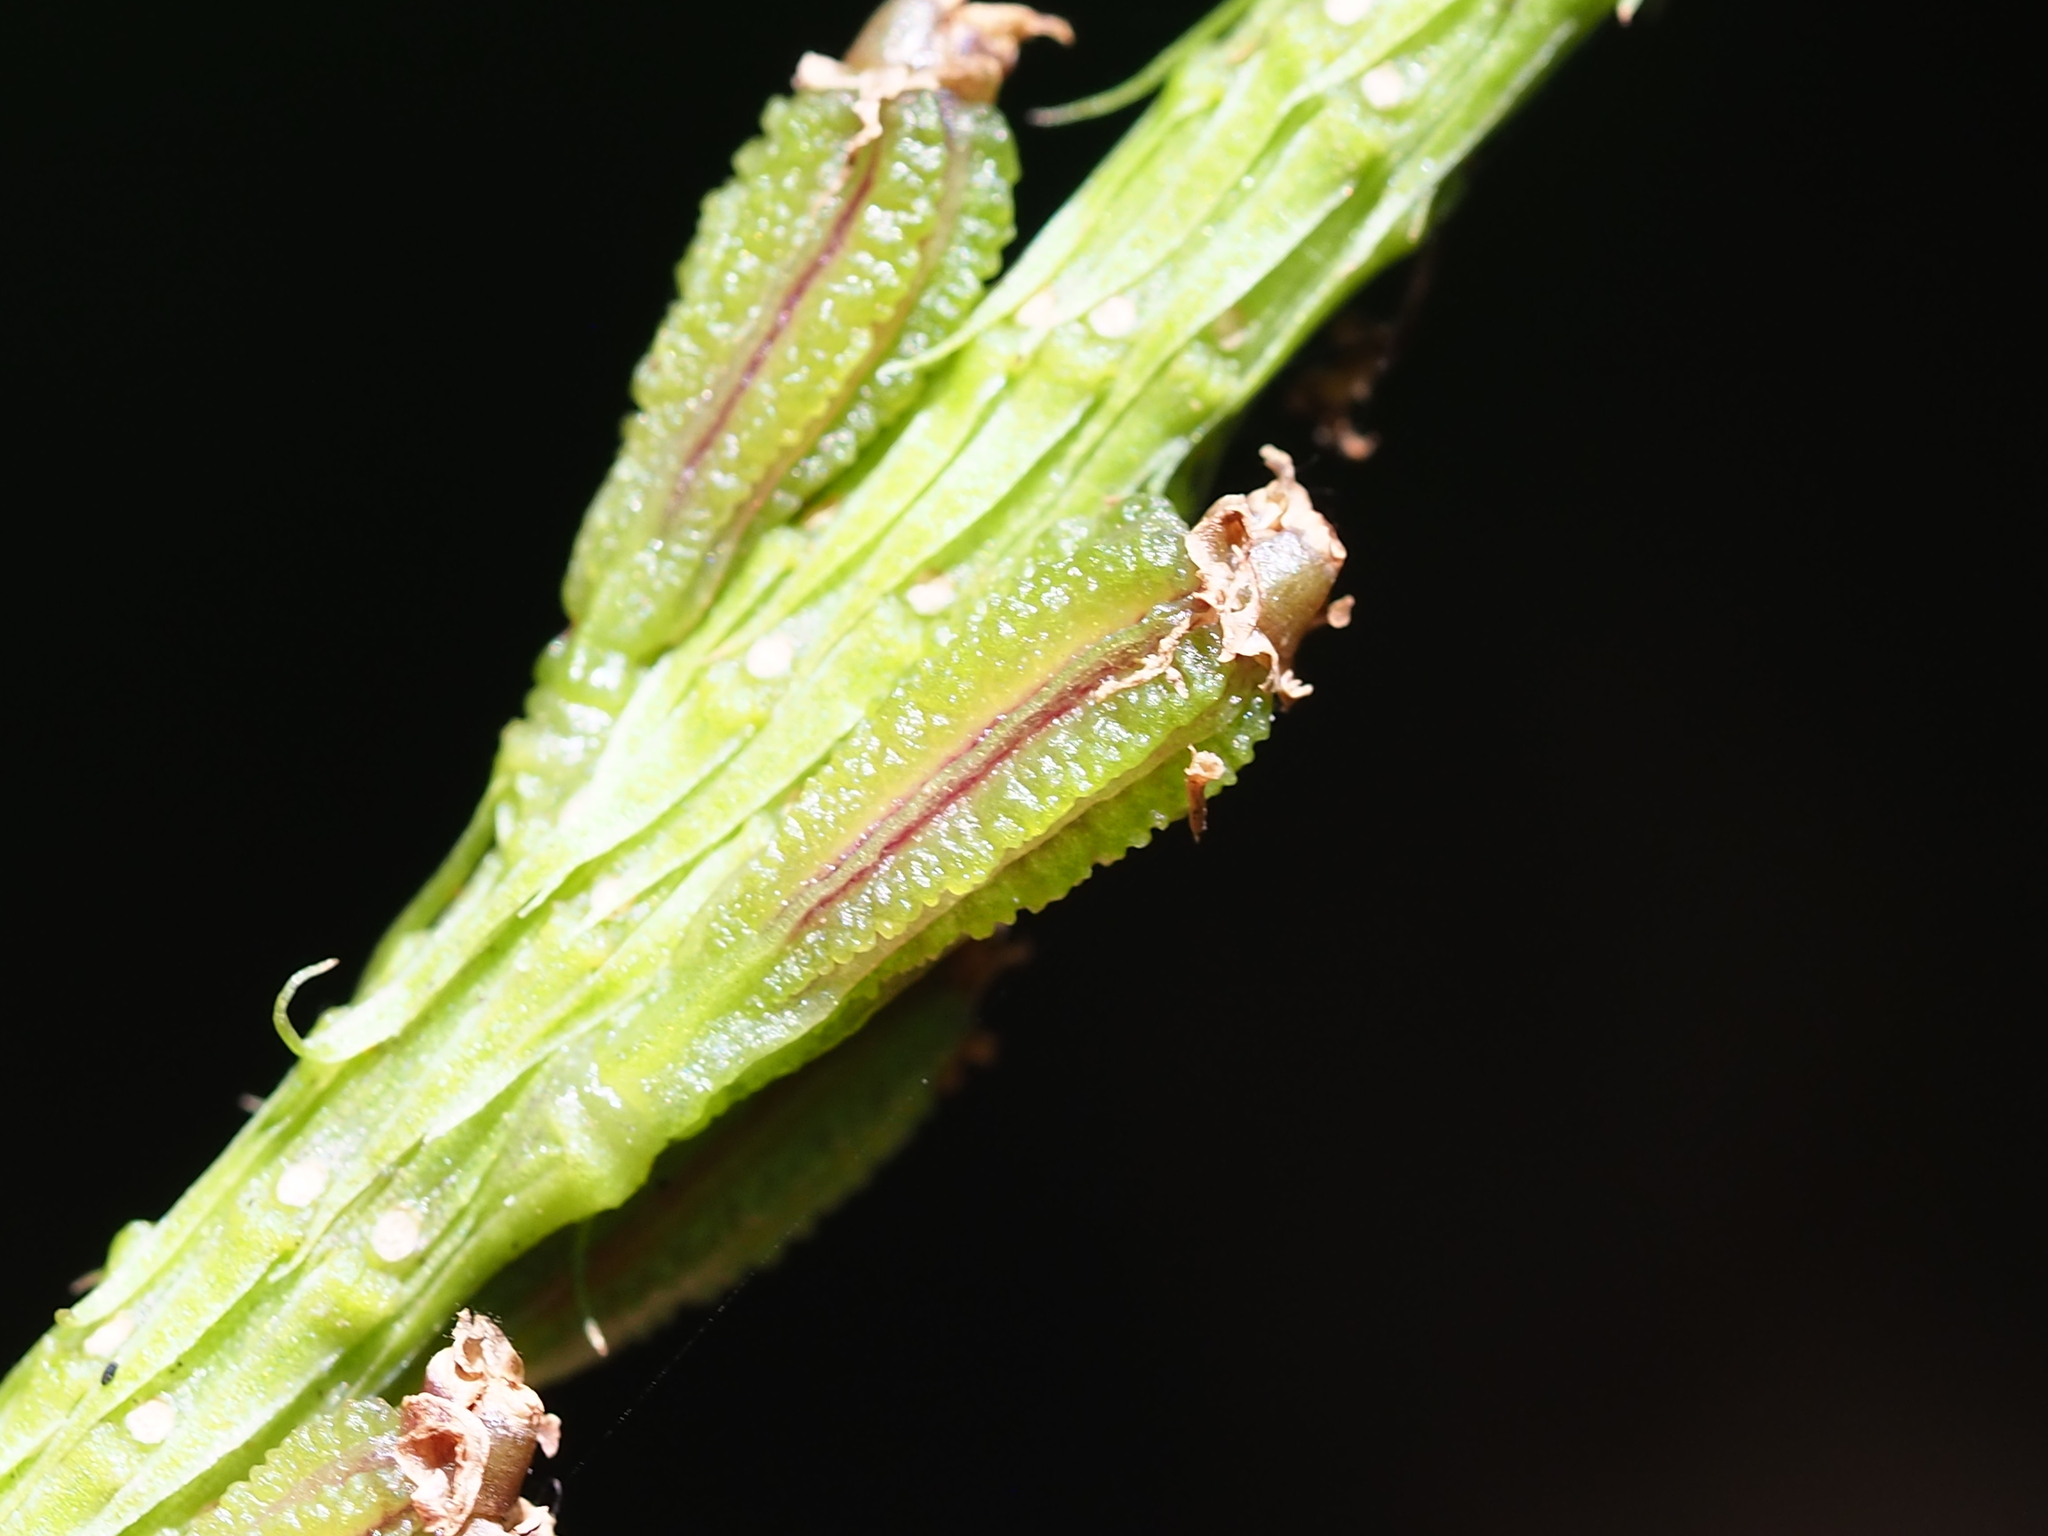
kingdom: Plantae
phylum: Tracheophyta
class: Liliopsida
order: Asparagales
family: Orchidaceae
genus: Dienia
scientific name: Dienia ophrydis
